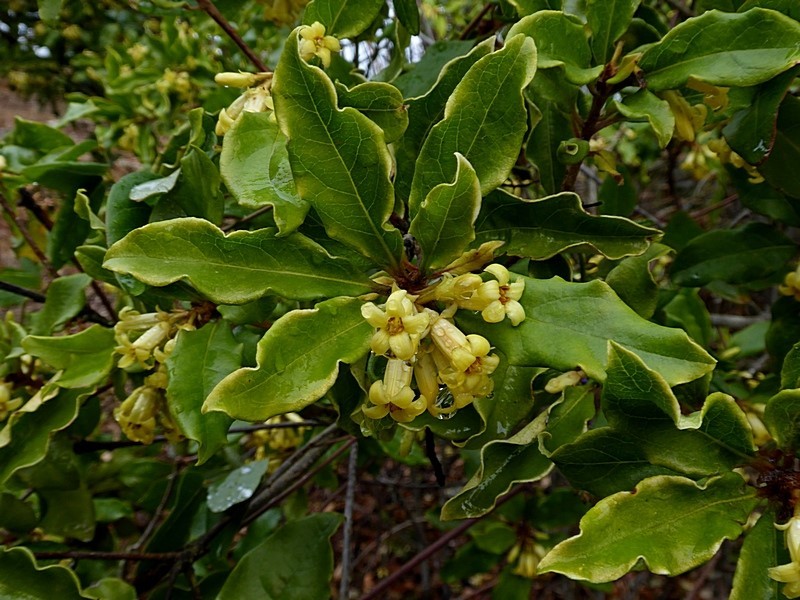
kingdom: Plantae
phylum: Tracheophyta
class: Magnoliopsida
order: Apiales
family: Pittosporaceae
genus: Pittosporum
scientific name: Pittosporum revolutum
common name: Brisbane-laurel
